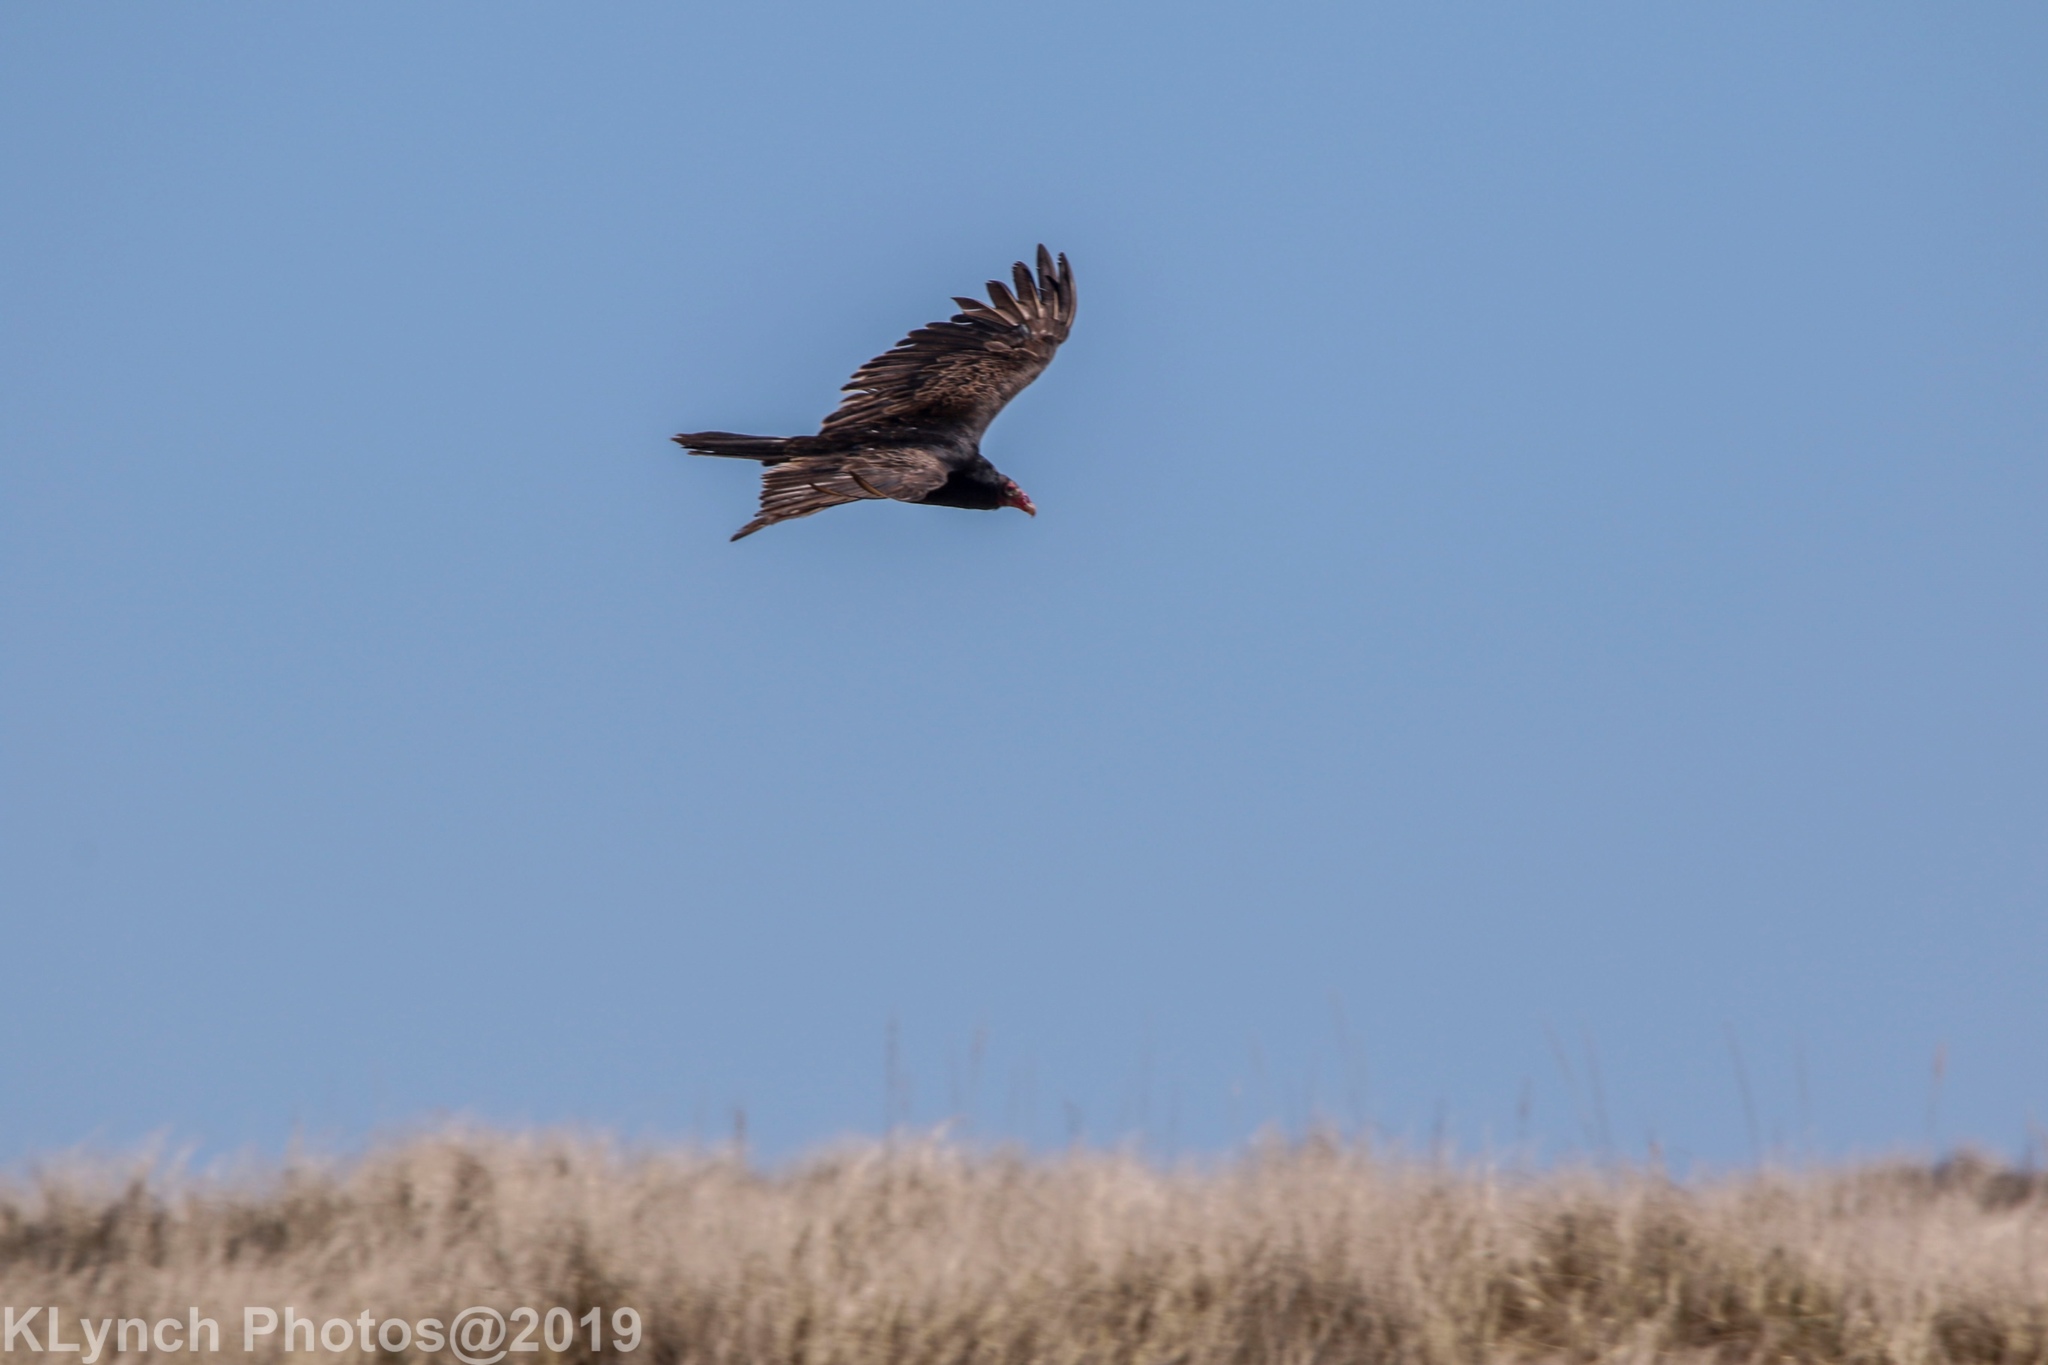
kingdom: Animalia
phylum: Chordata
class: Aves
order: Accipitriformes
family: Cathartidae
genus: Cathartes
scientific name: Cathartes aura
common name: Turkey vulture
